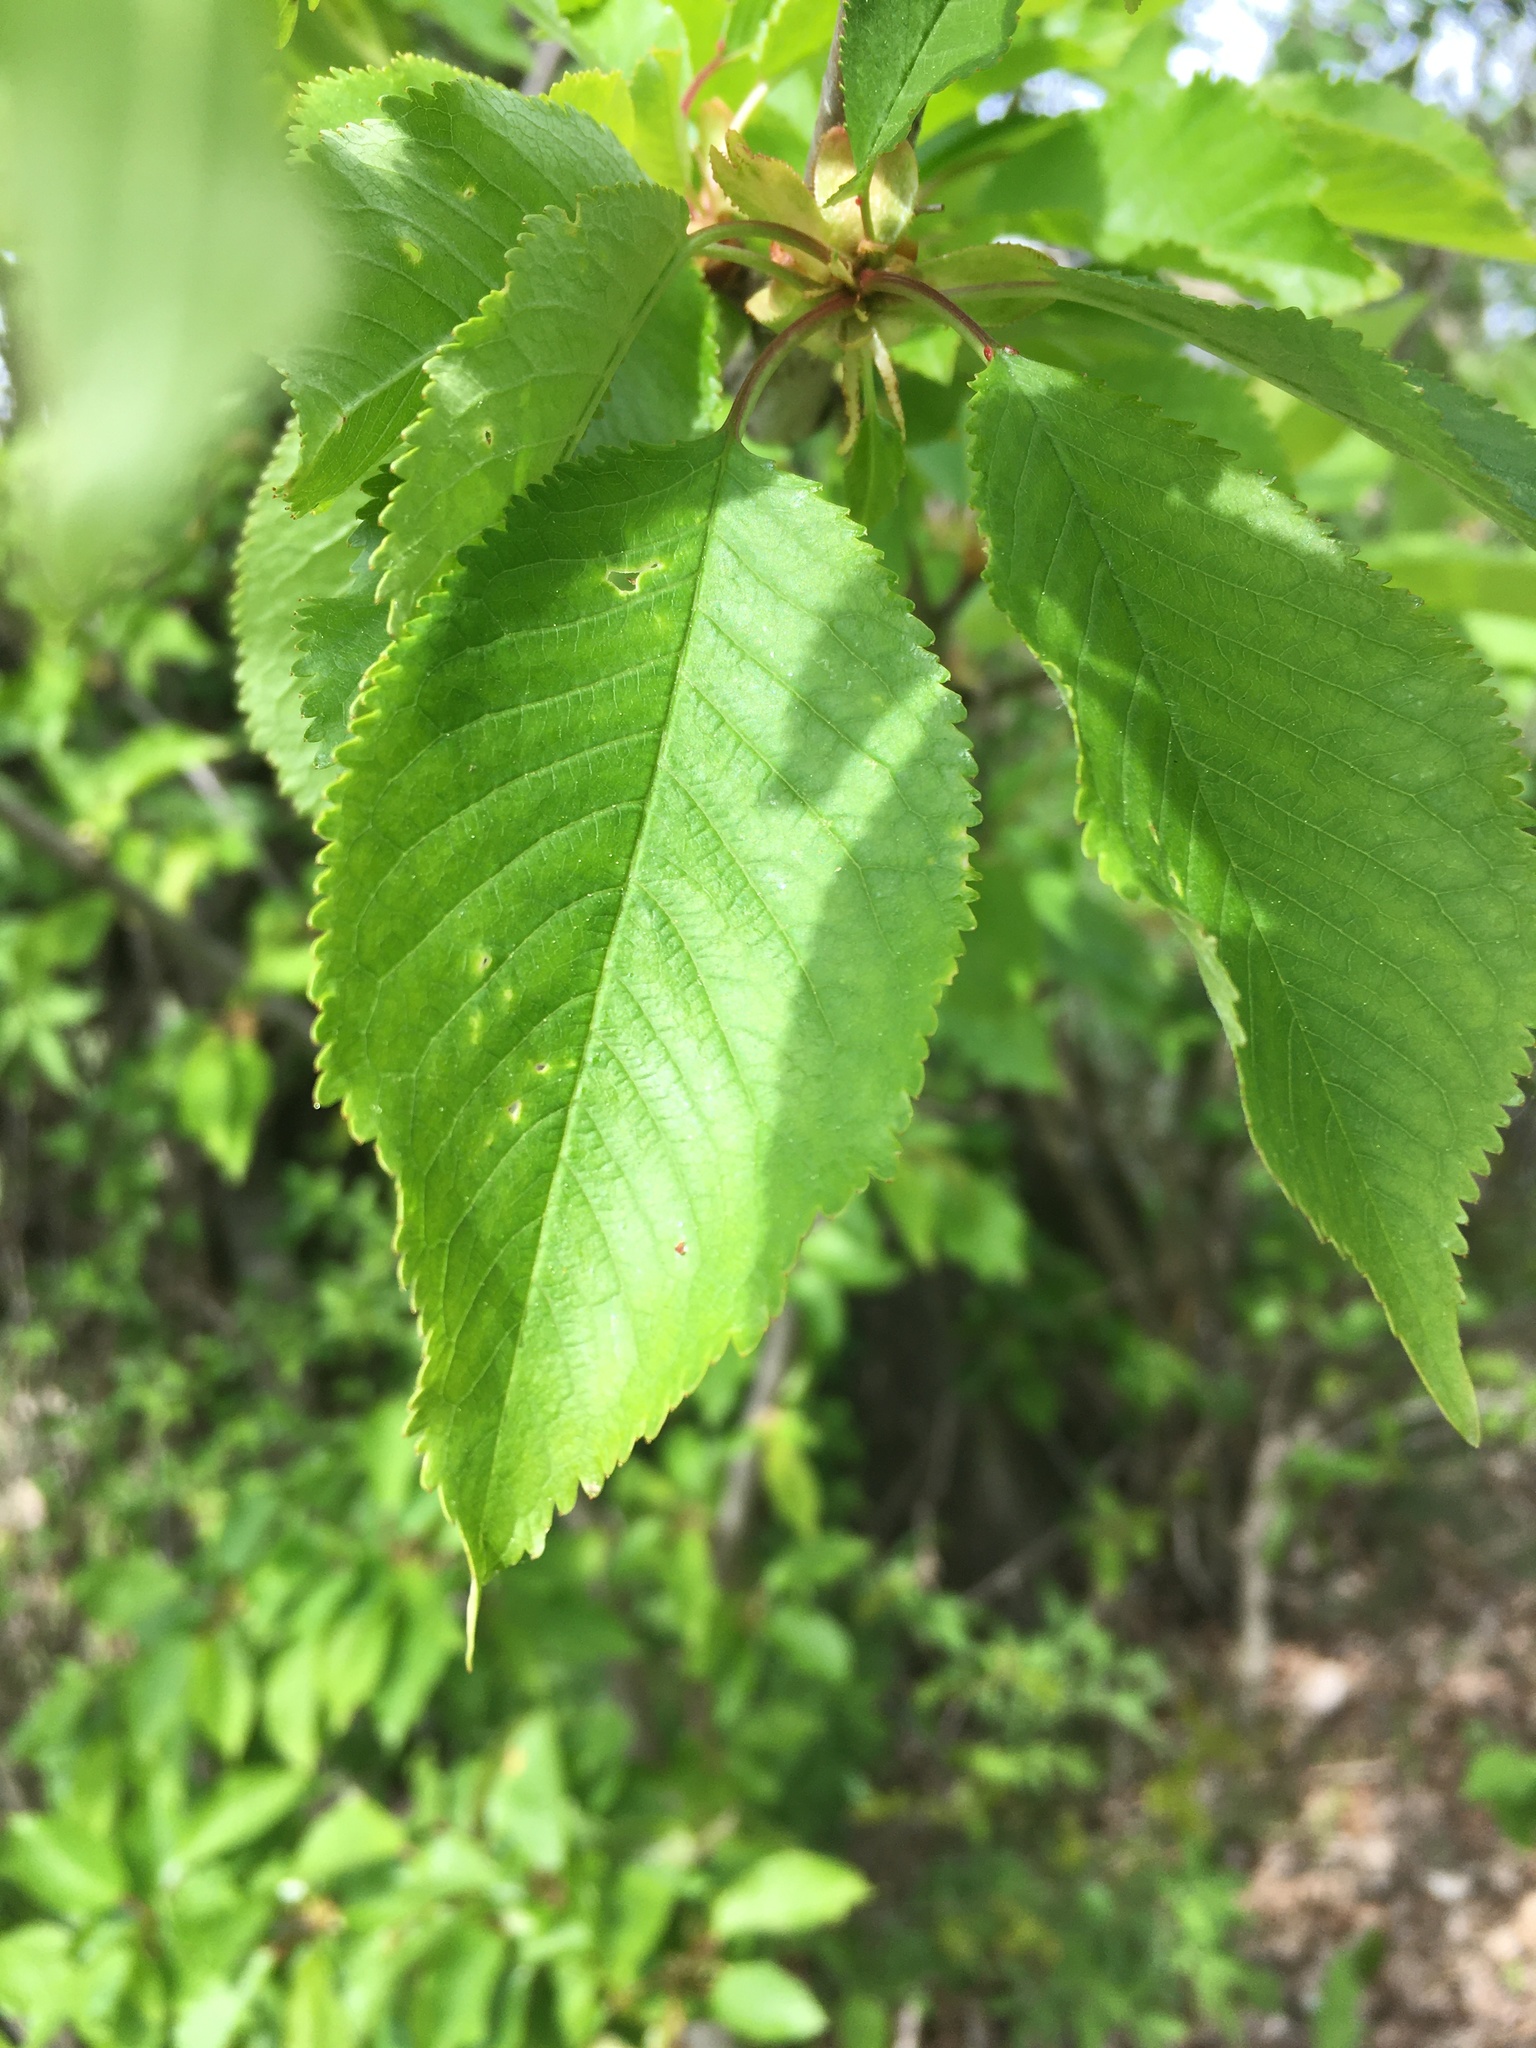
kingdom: Plantae
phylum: Tracheophyta
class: Magnoliopsida
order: Rosales
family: Rosaceae
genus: Prunus
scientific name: Prunus avium
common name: Sweet cherry
